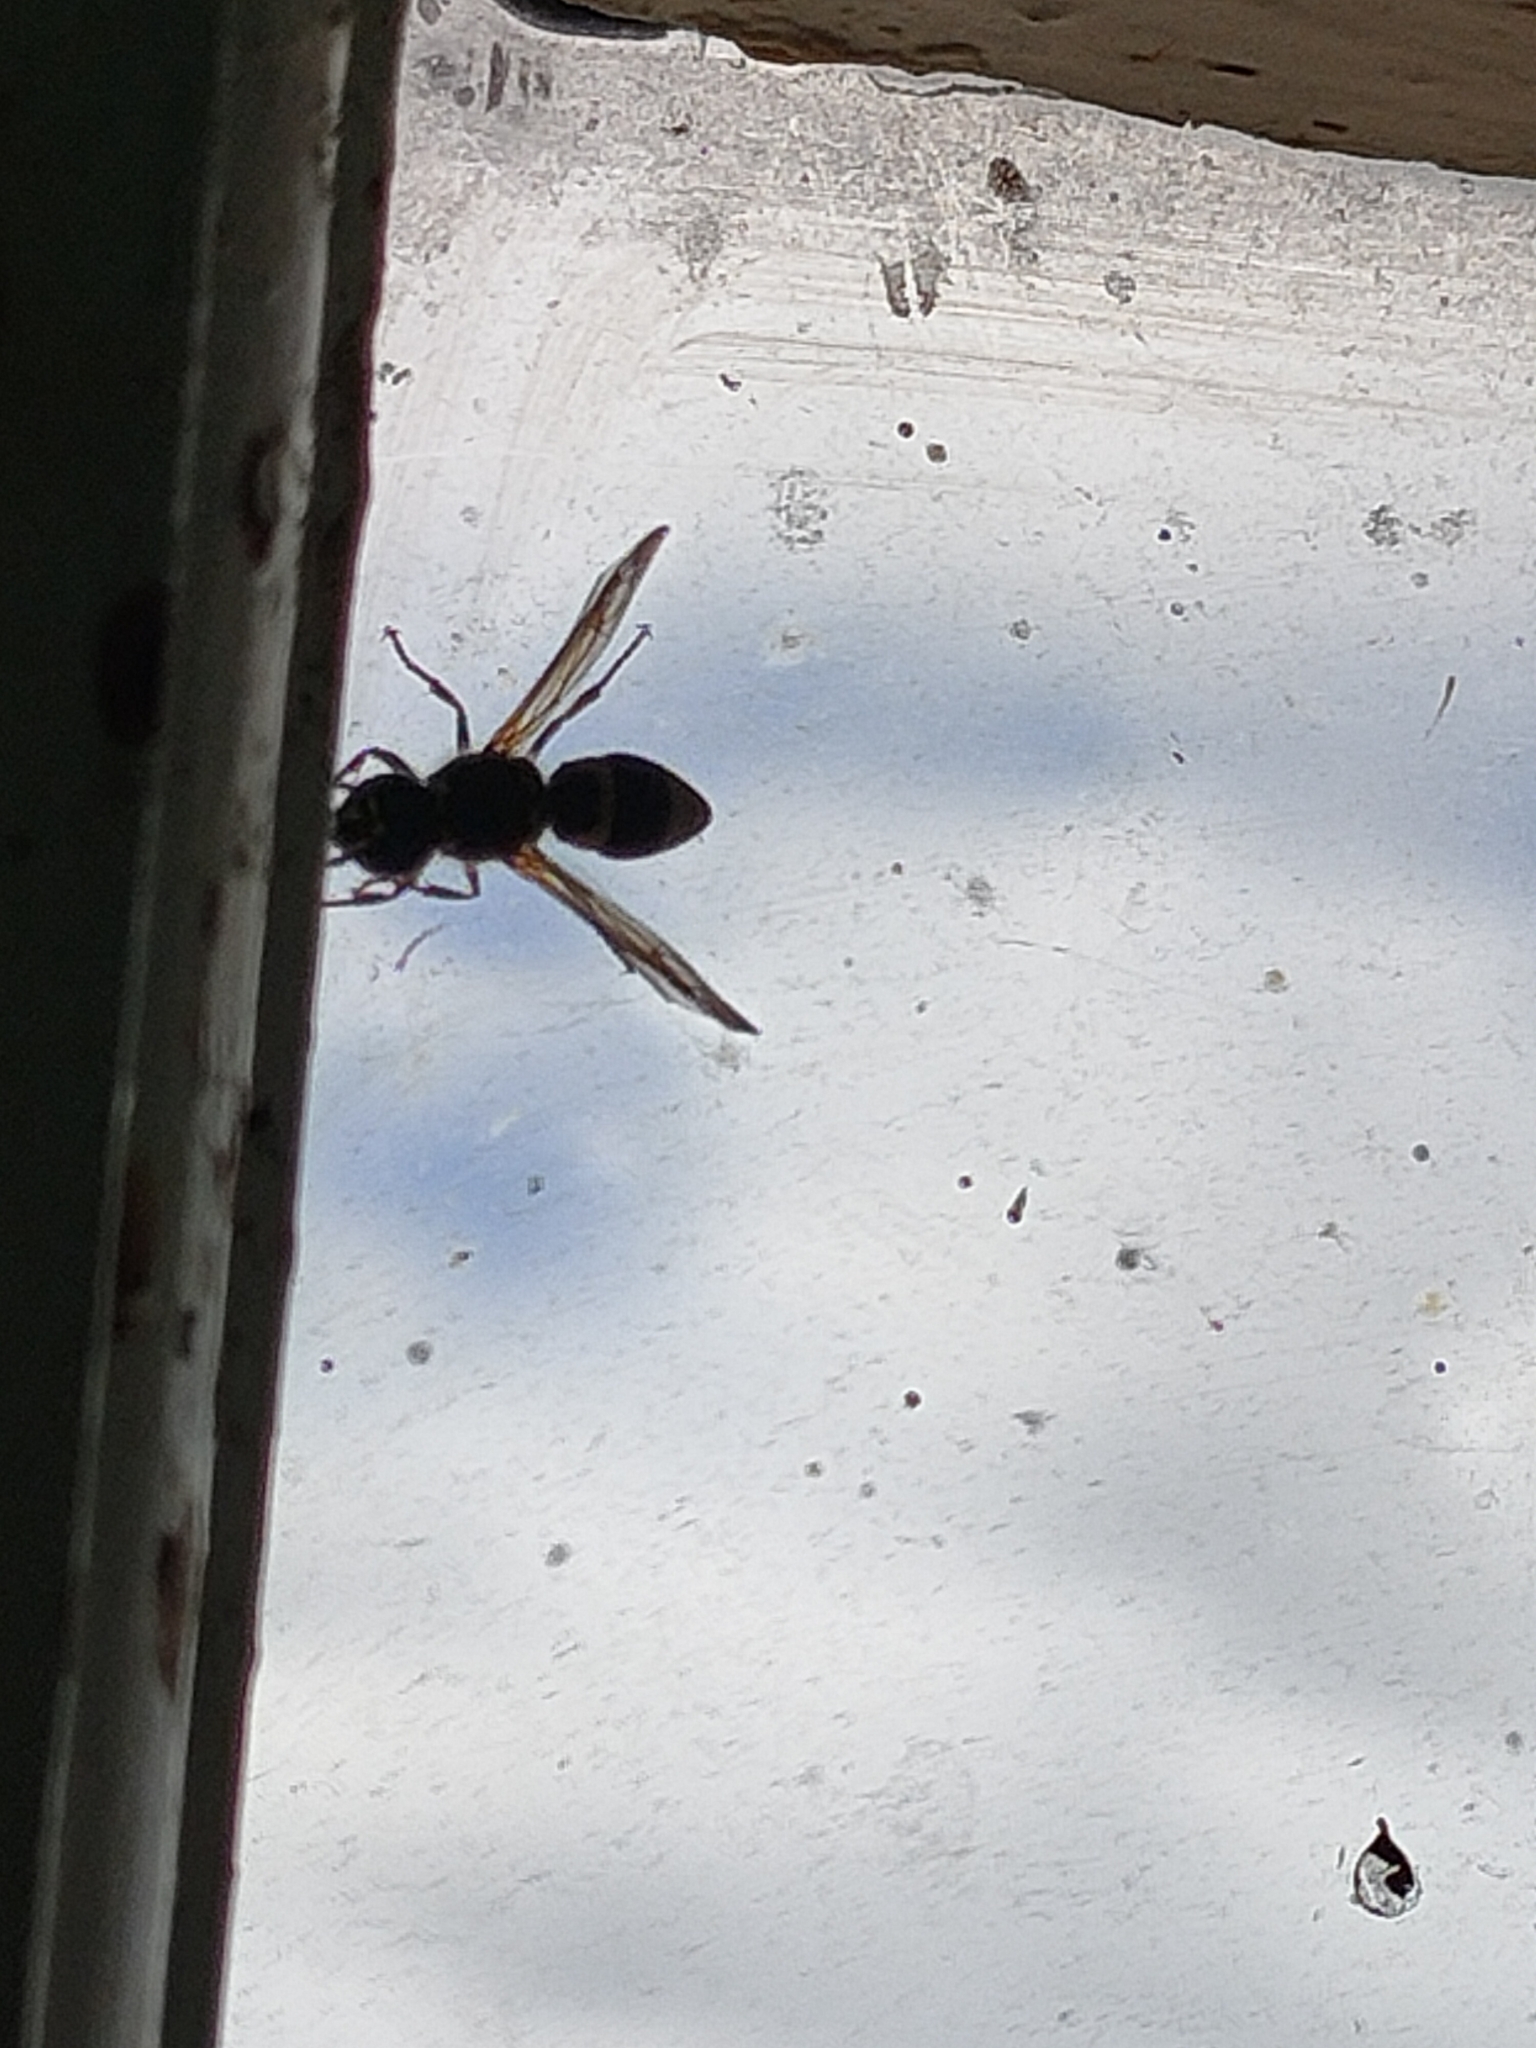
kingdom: Animalia
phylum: Arthropoda
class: Insecta
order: Hymenoptera
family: Vespidae
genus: Ancistrocerus
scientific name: Ancistrocerus gazella
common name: European tube wasp
